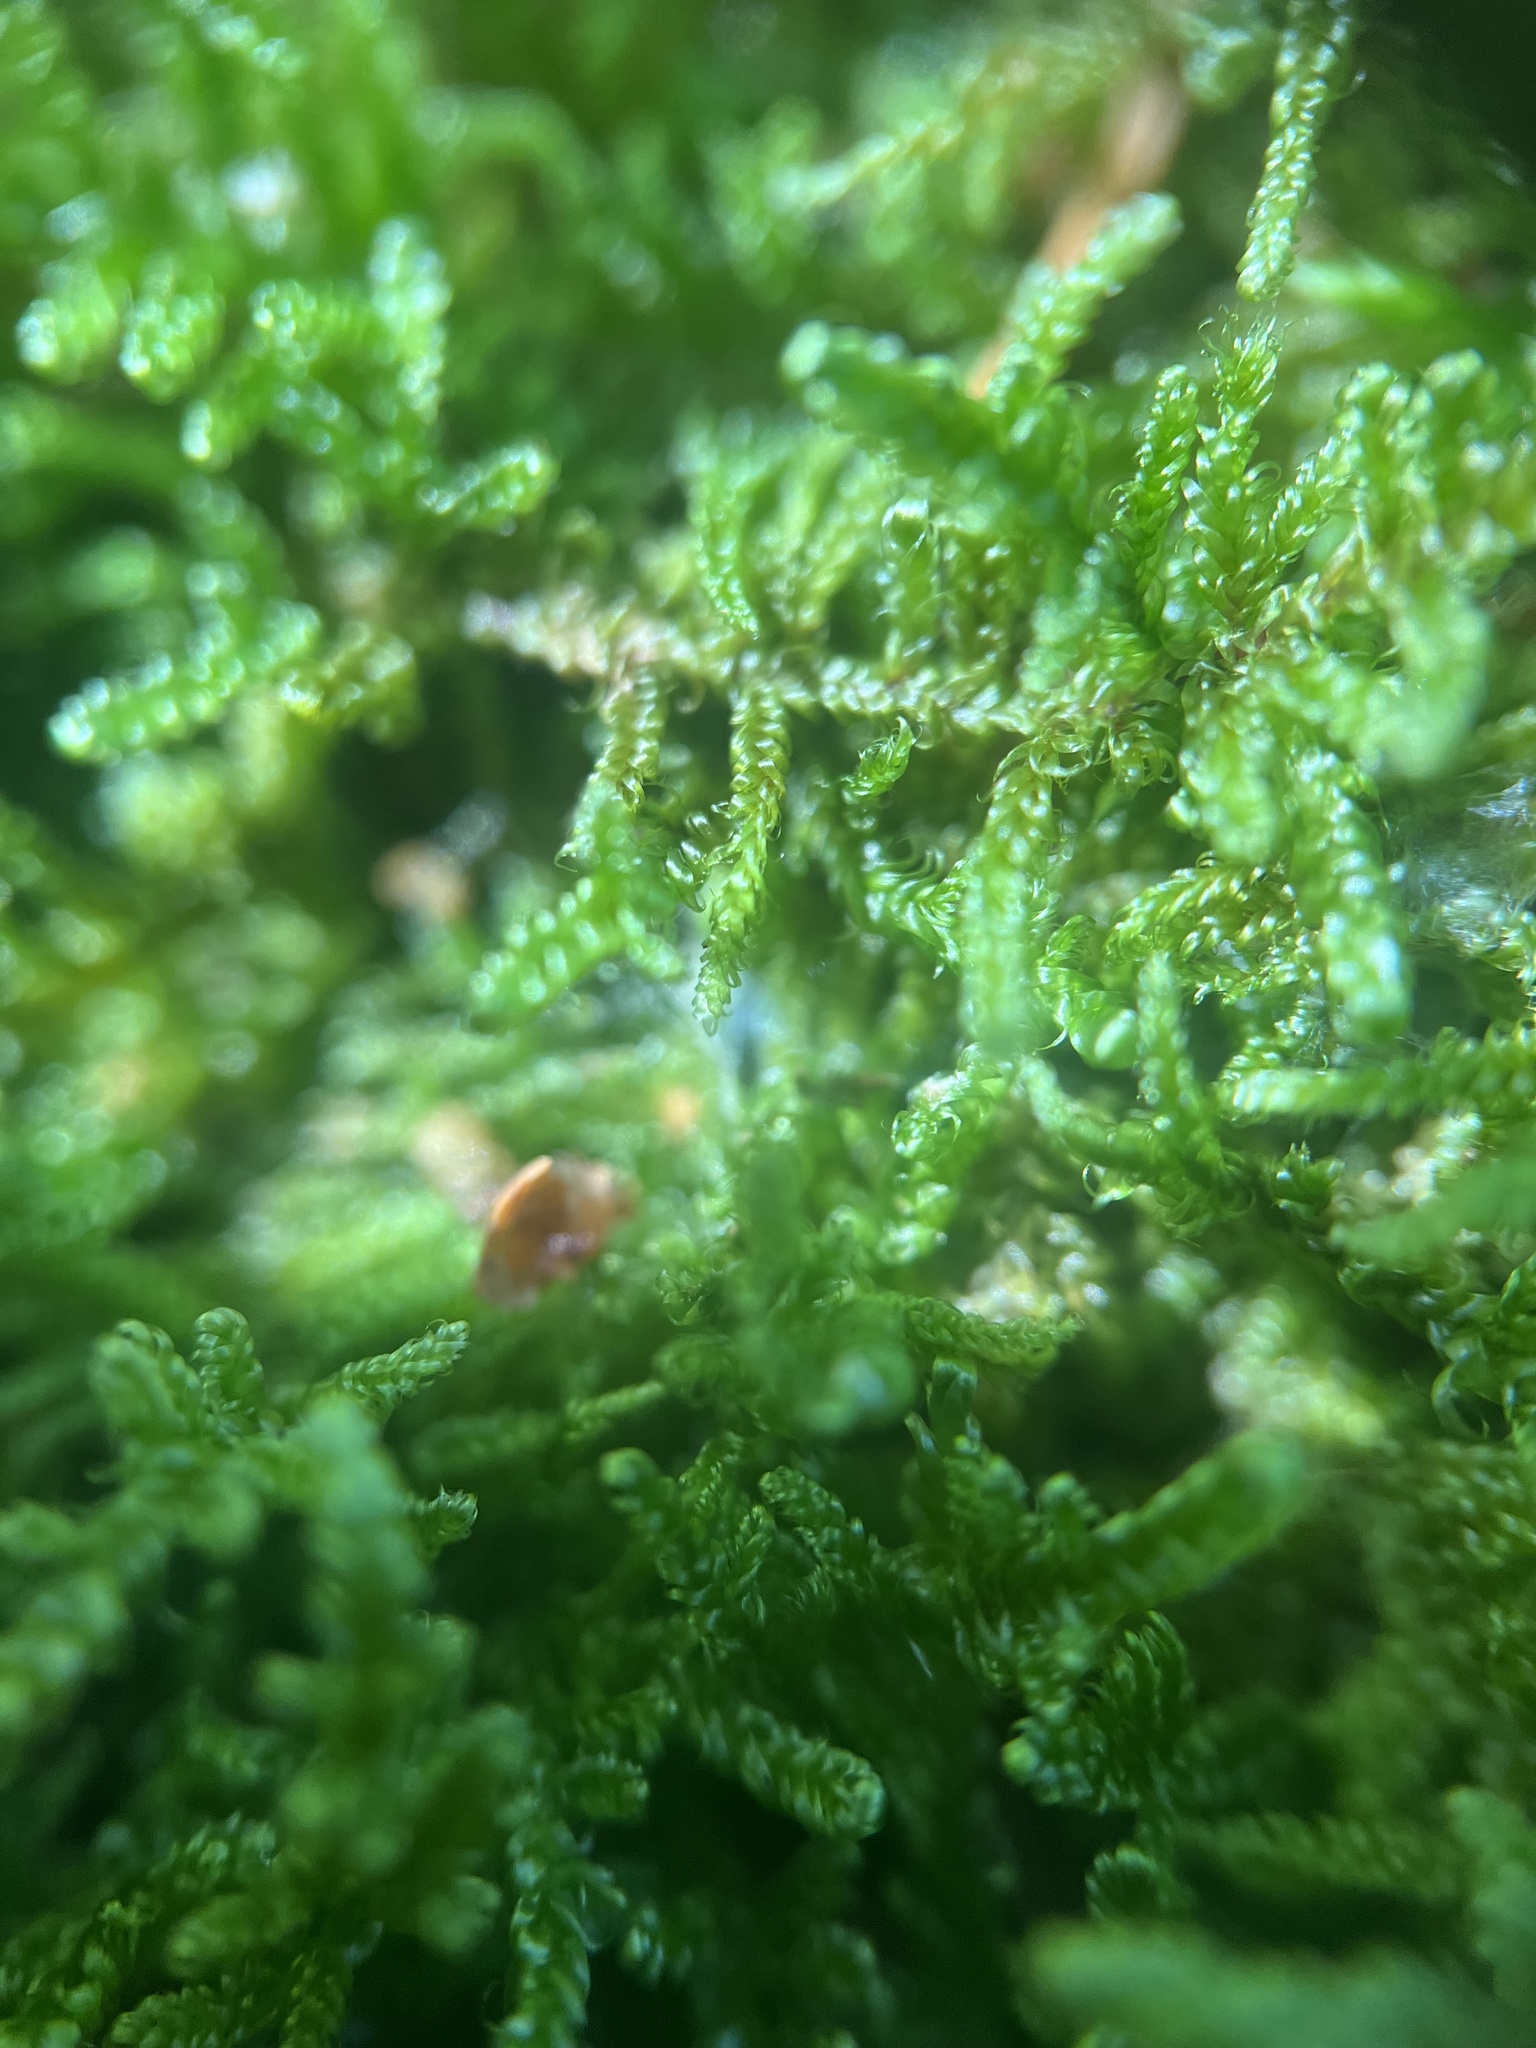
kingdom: Plantae
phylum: Bryophyta
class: Bryopsida
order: Hypnales
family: Callicladiaceae
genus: Callicladium
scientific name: Callicladium imponens
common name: Brocade moss
